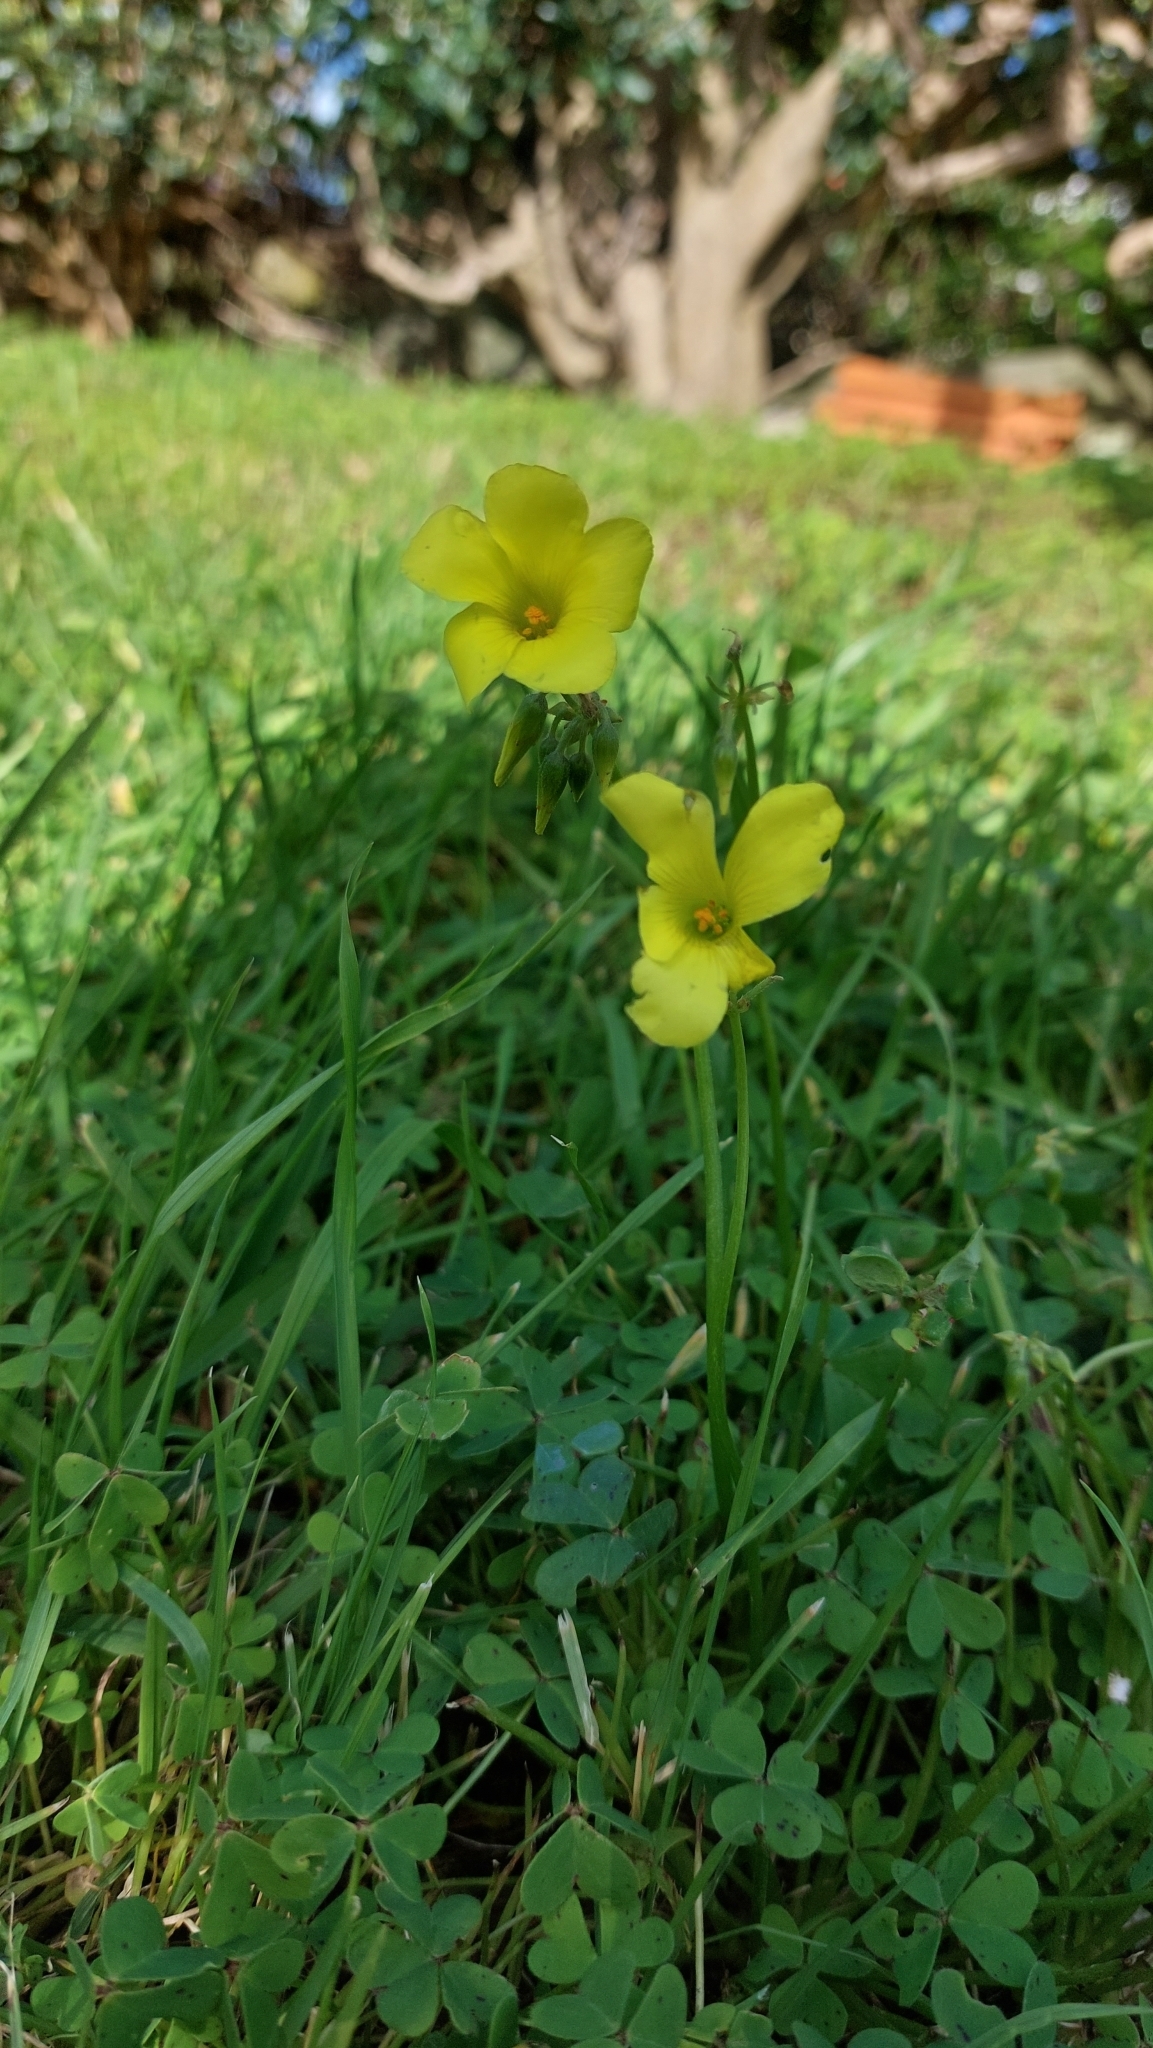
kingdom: Plantae
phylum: Tracheophyta
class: Magnoliopsida
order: Oxalidales
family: Oxalidaceae
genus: Oxalis
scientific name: Oxalis pes-caprae
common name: Bermuda-buttercup
